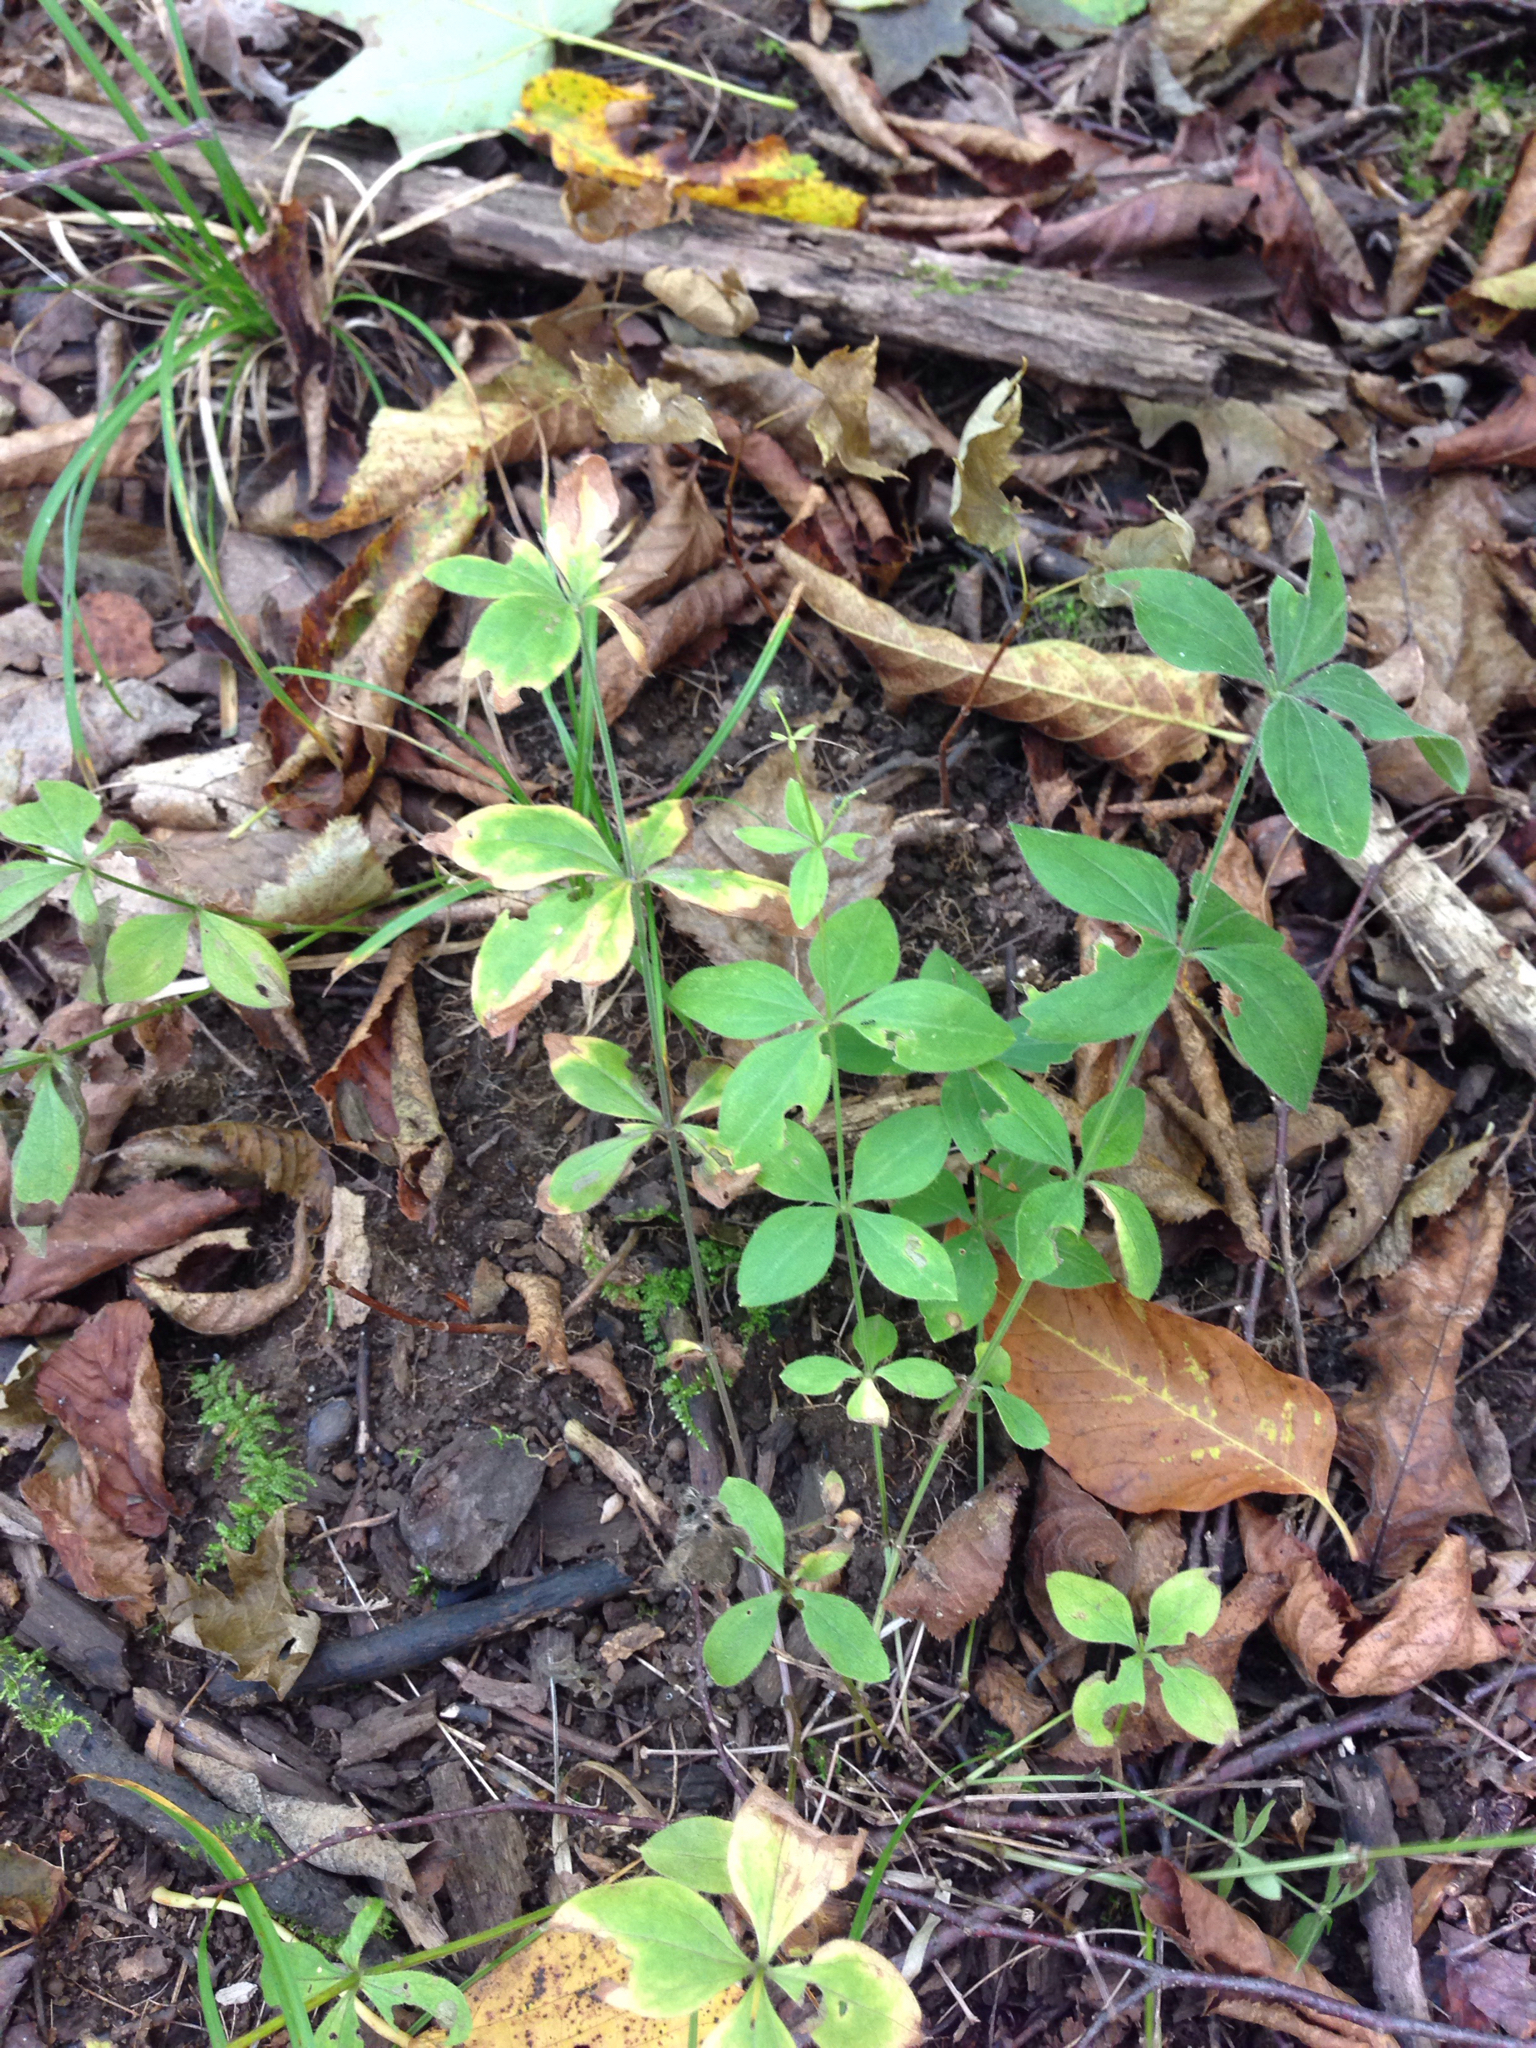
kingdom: Plantae
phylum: Tracheophyta
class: Magnoliopsida
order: Gentianales
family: Rubiaceae
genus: Galium
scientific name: Galium circaezans
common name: Forest bedstraw
